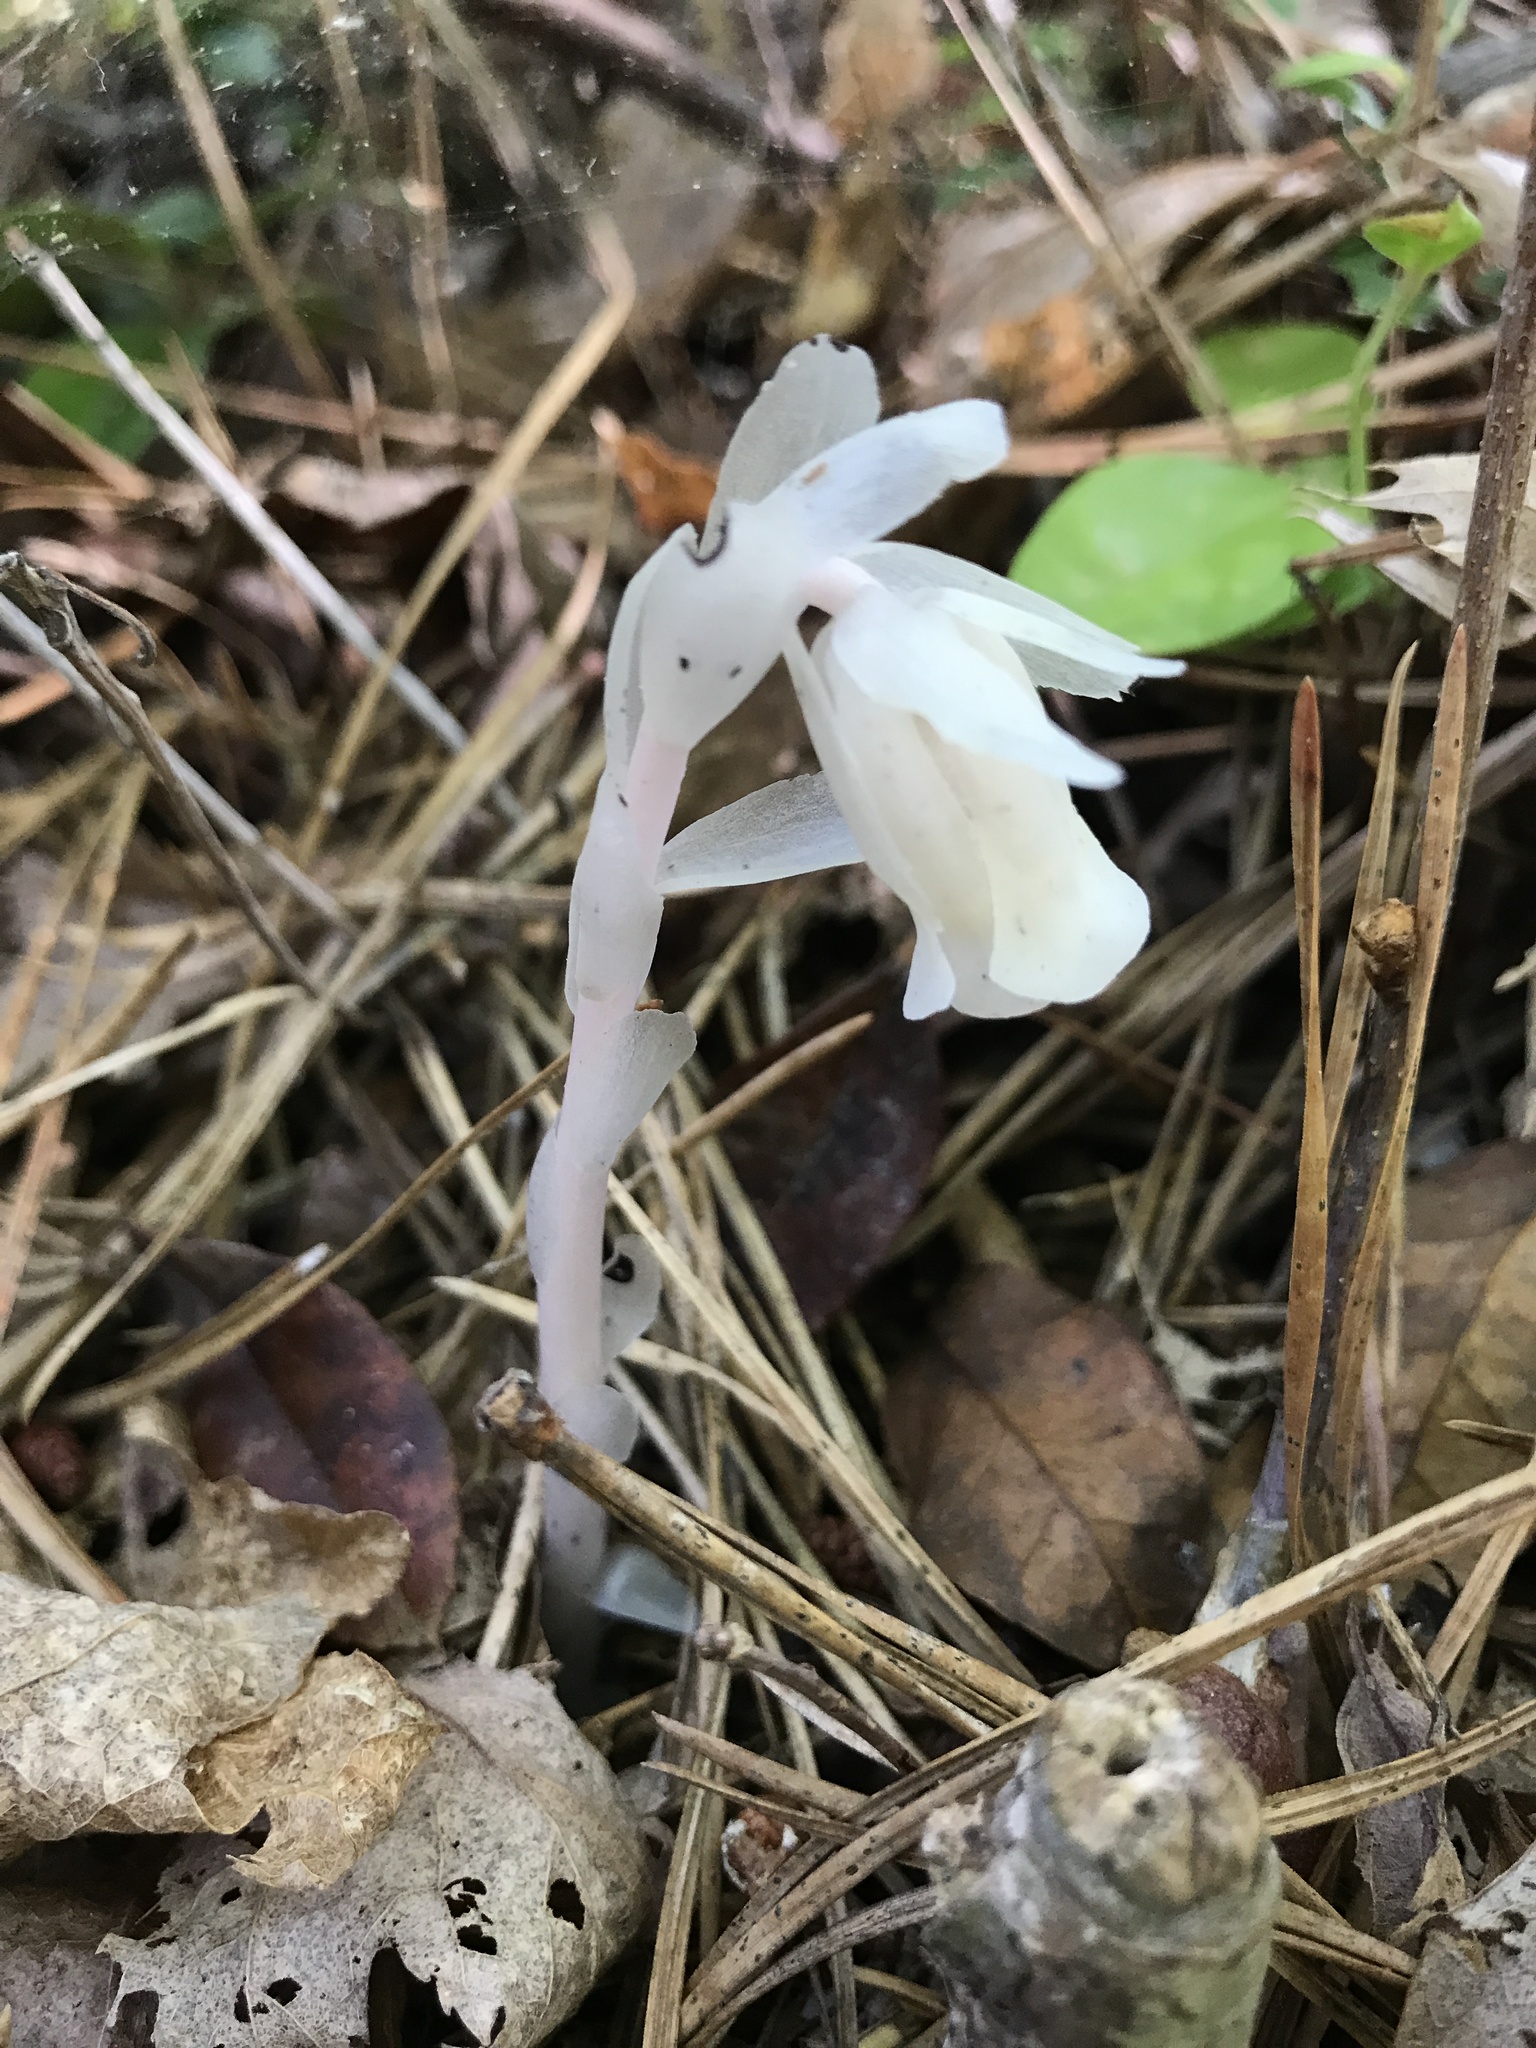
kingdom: Plantae
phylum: Tracheophyta
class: Magnoliopsida
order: Ericales
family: Ericaceae
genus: Monotropa
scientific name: Monotropa uniflora
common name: Convulsion root
